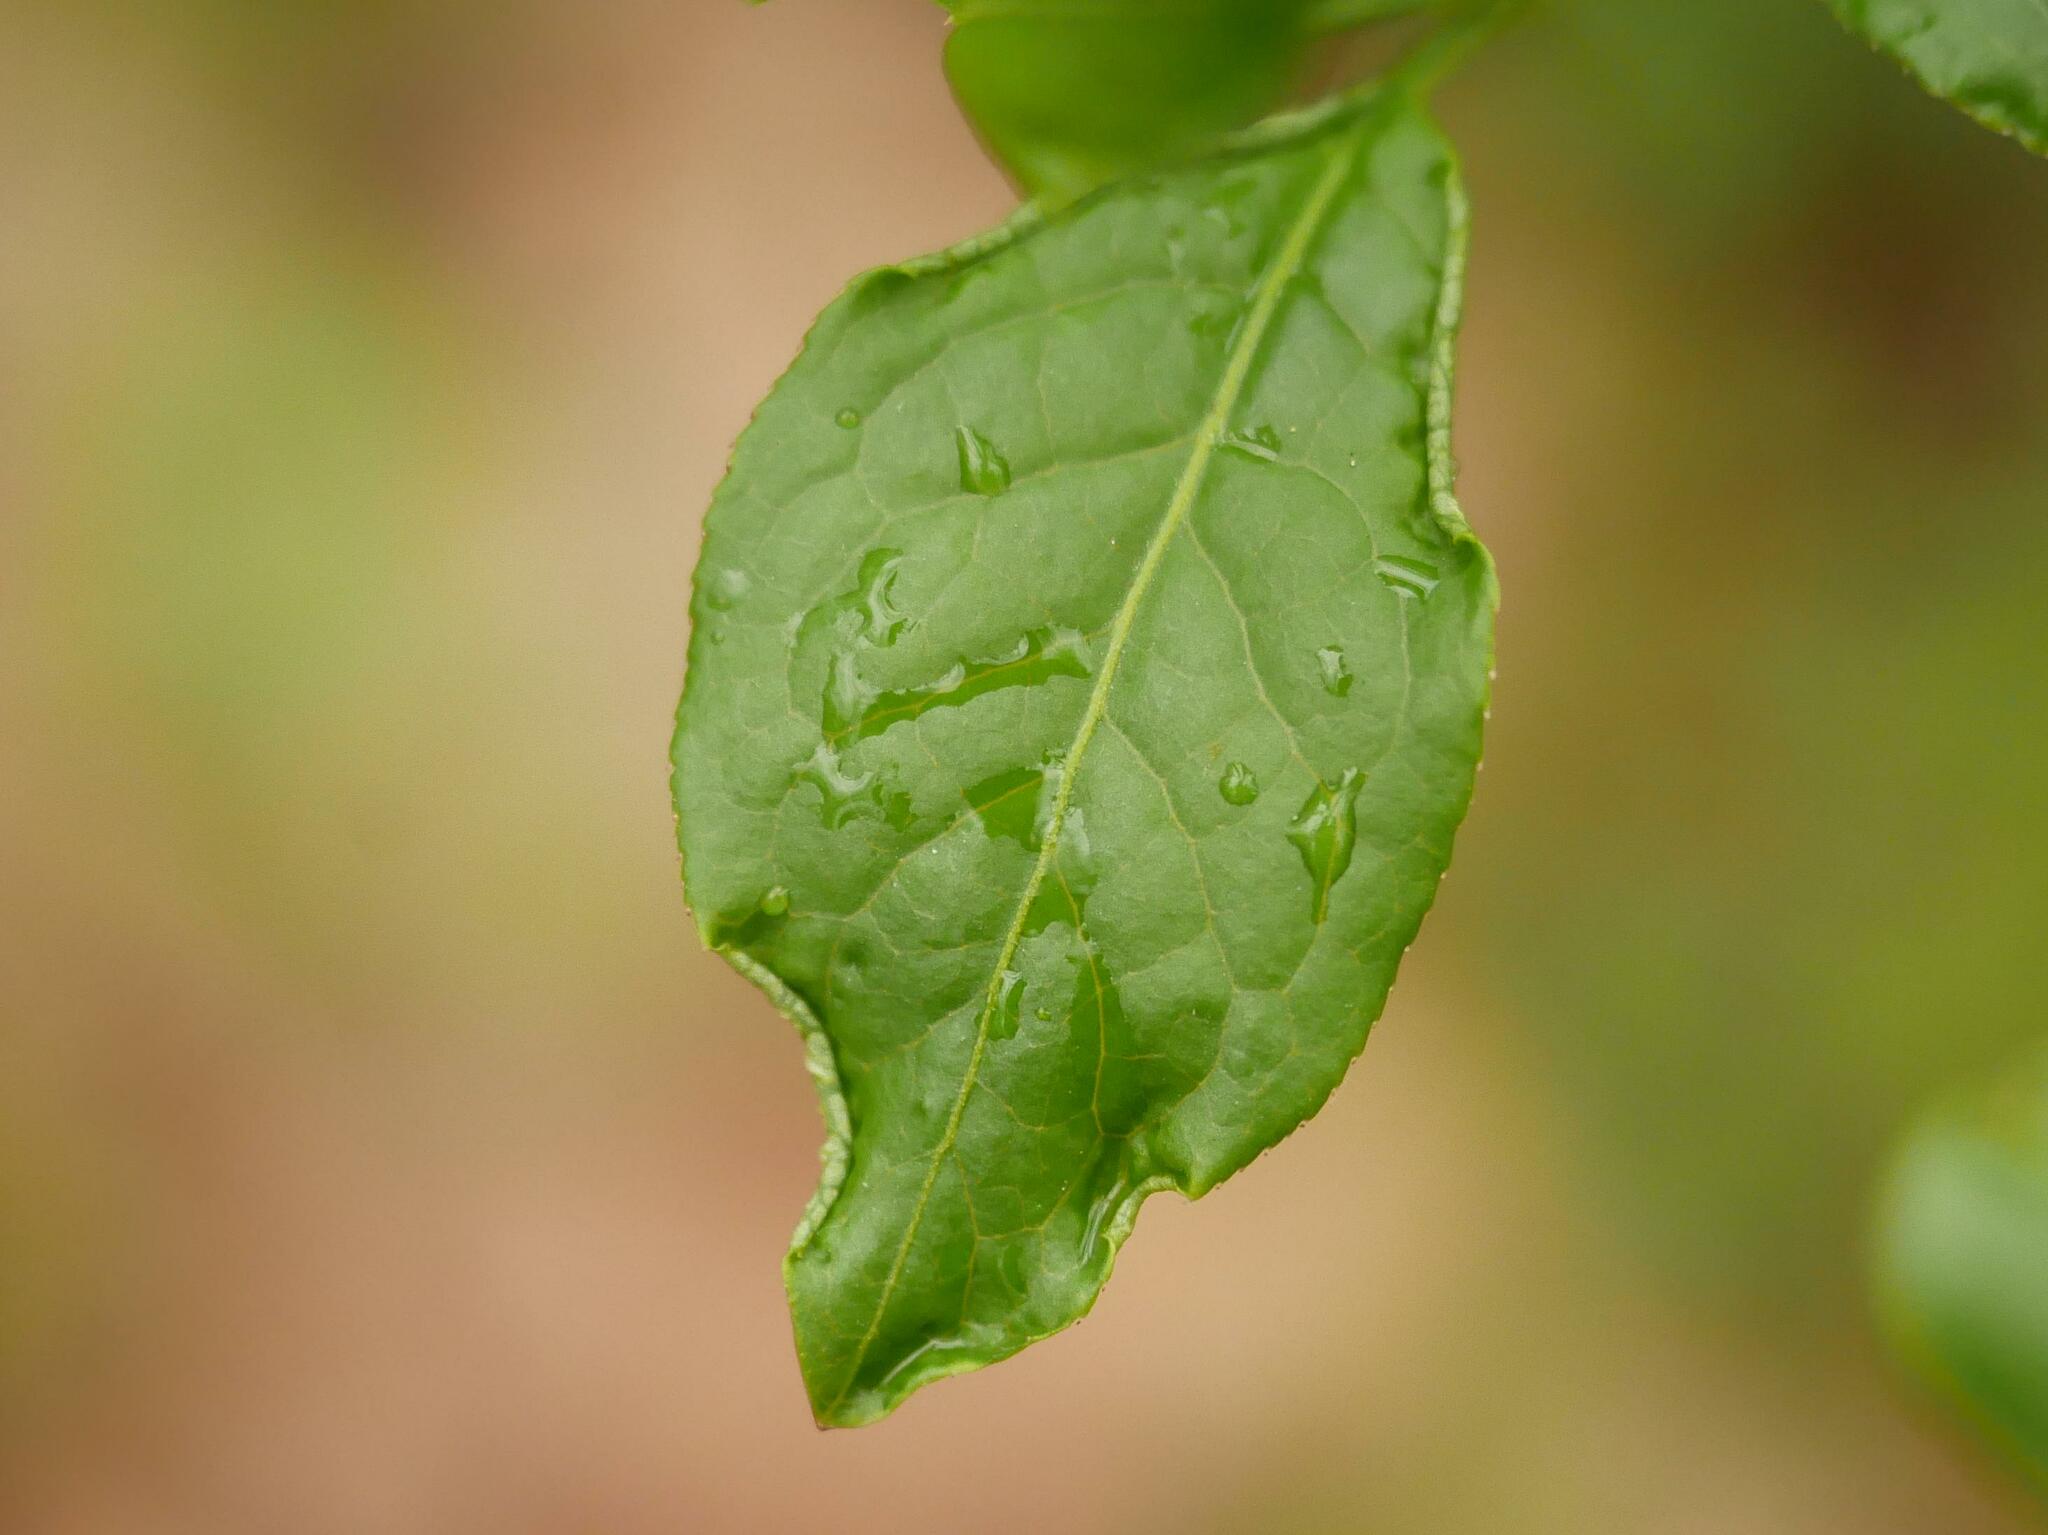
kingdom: Animalia
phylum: Arthropoda
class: Arachnida
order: Trombidiformes
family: Eriophyidae
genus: Stenacis
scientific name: Stenacis evonymi
